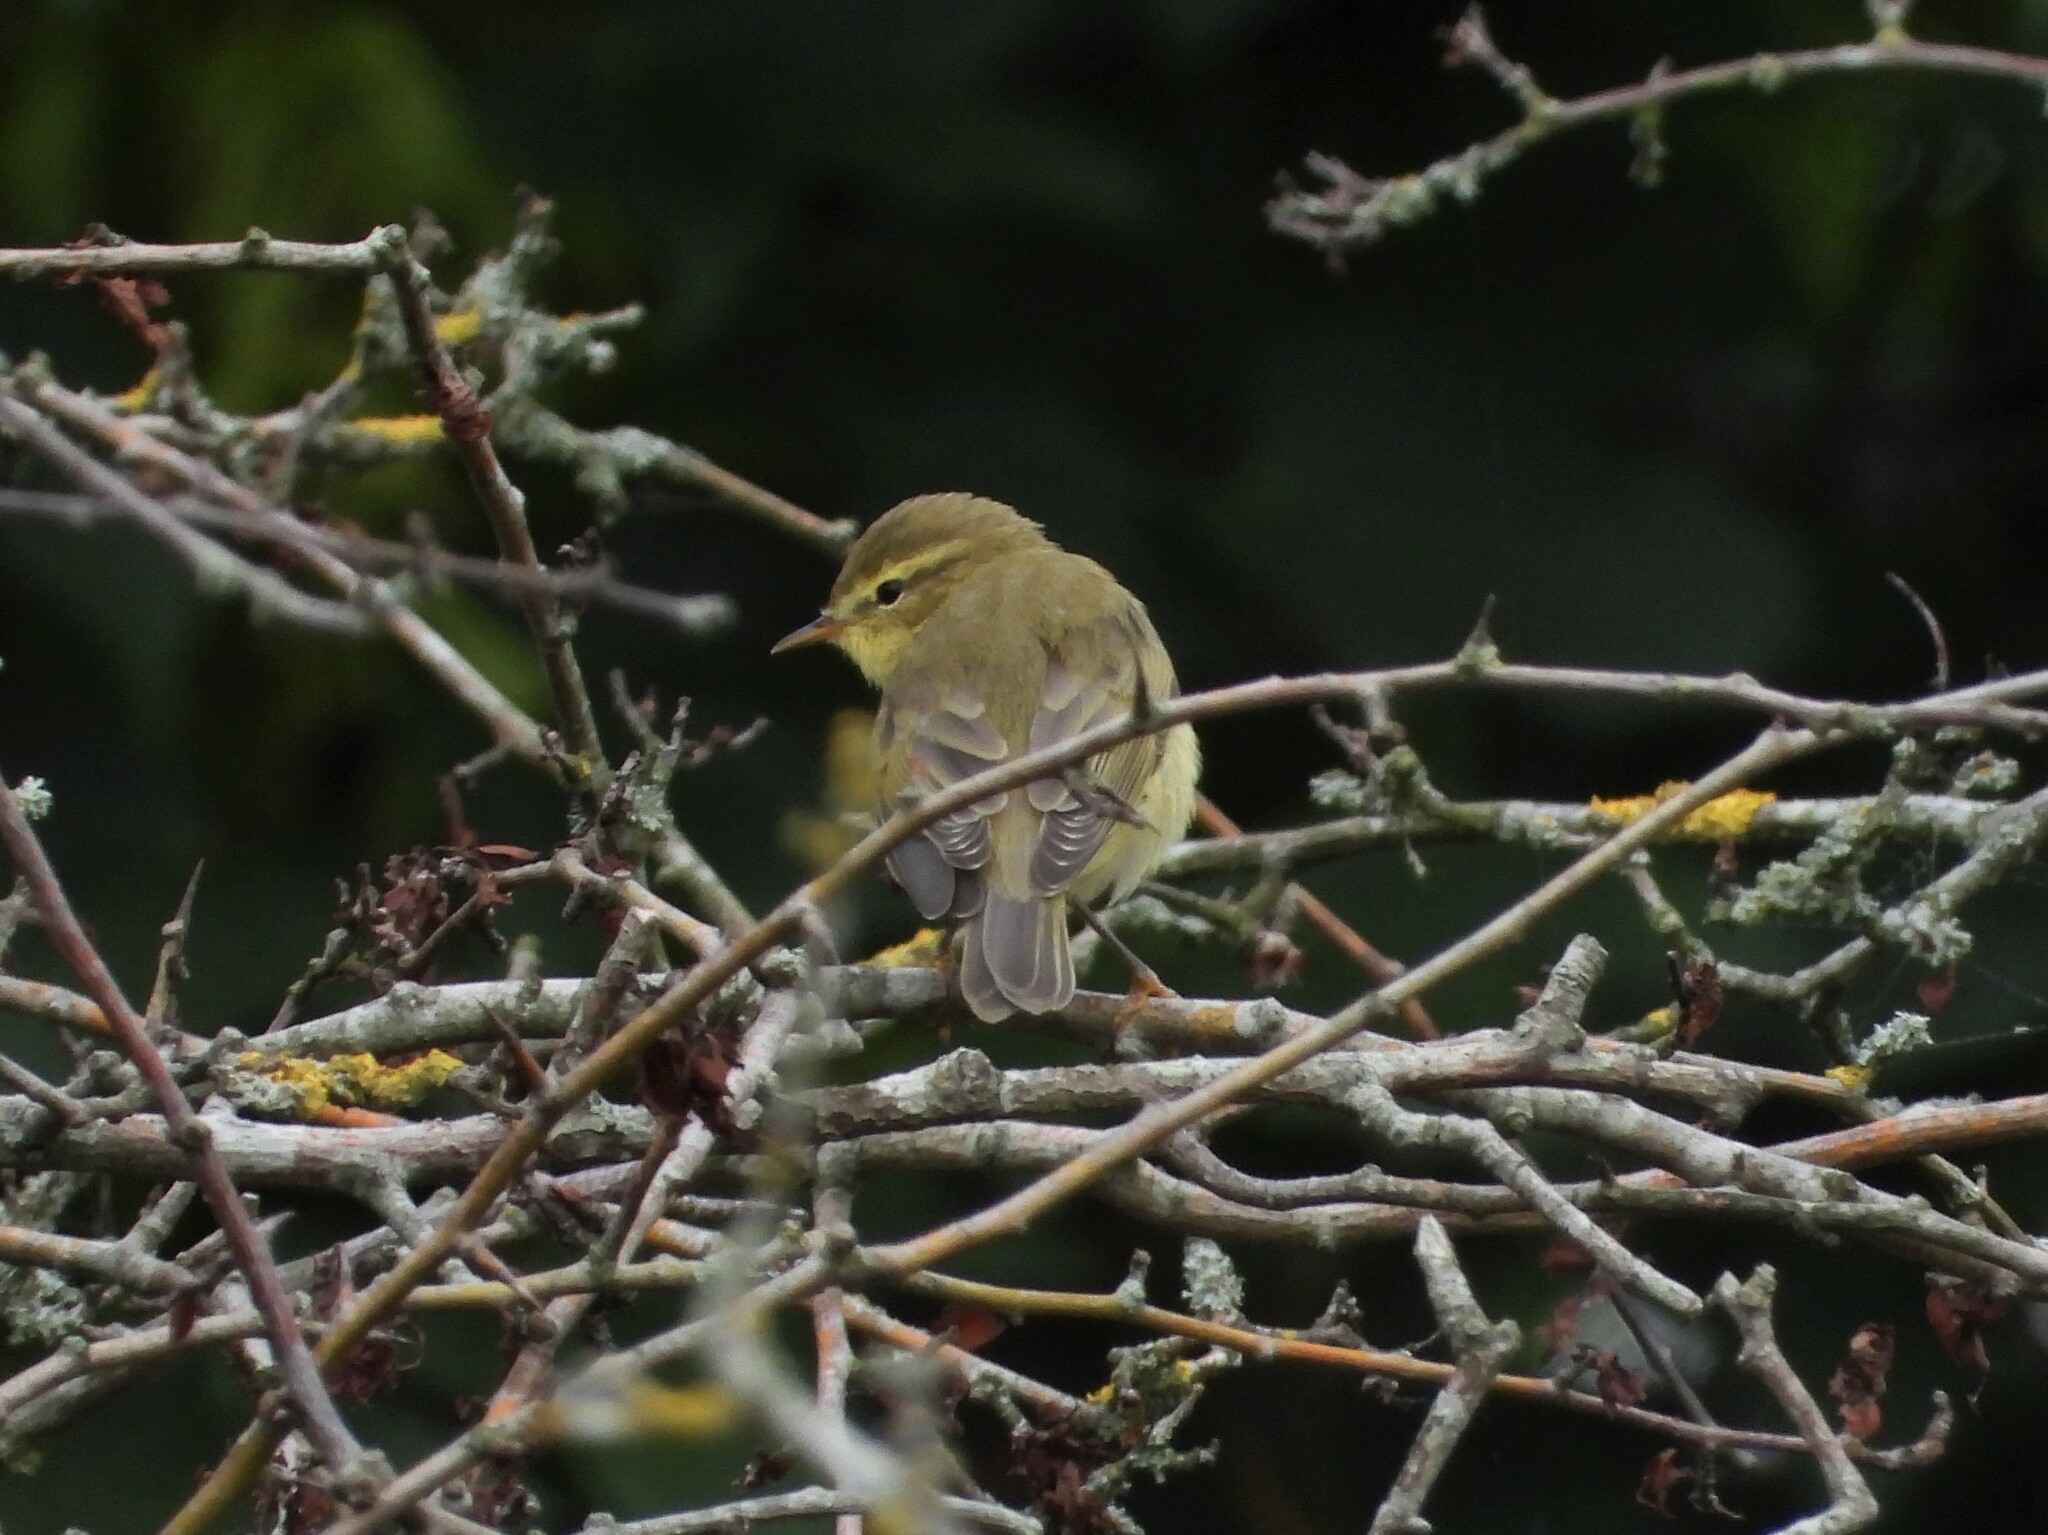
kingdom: Animalia
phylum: Chordata
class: Aves
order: Passeriformes
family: Phylloscopidae
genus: Phylloscopus
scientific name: Phylloscopus collybita
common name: Common chiffchaff
